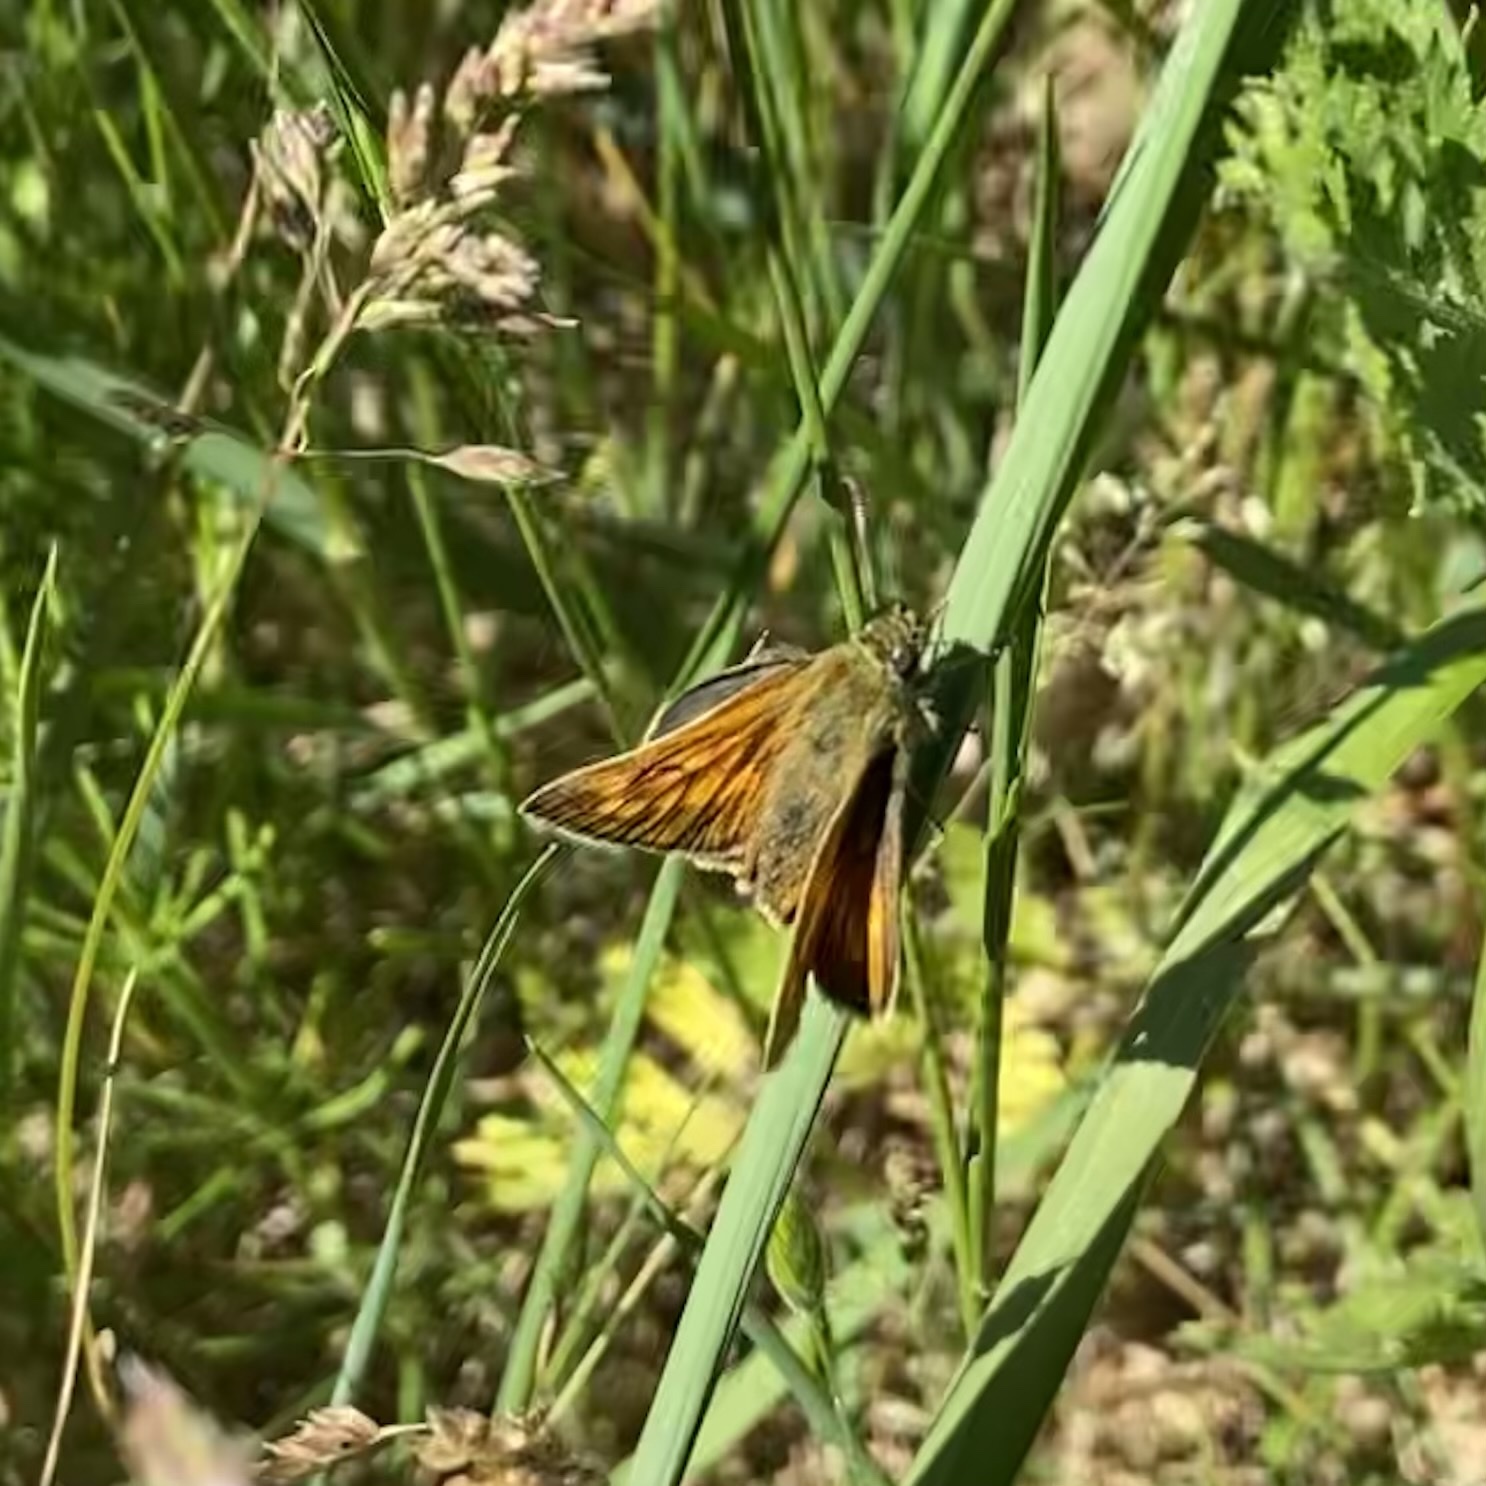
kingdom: Animalia
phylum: Arthropoda
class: Insecta
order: Lepidoptera
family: Hesperiidae
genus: Ochlodes
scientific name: Ochlodes venata
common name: Large skipper
